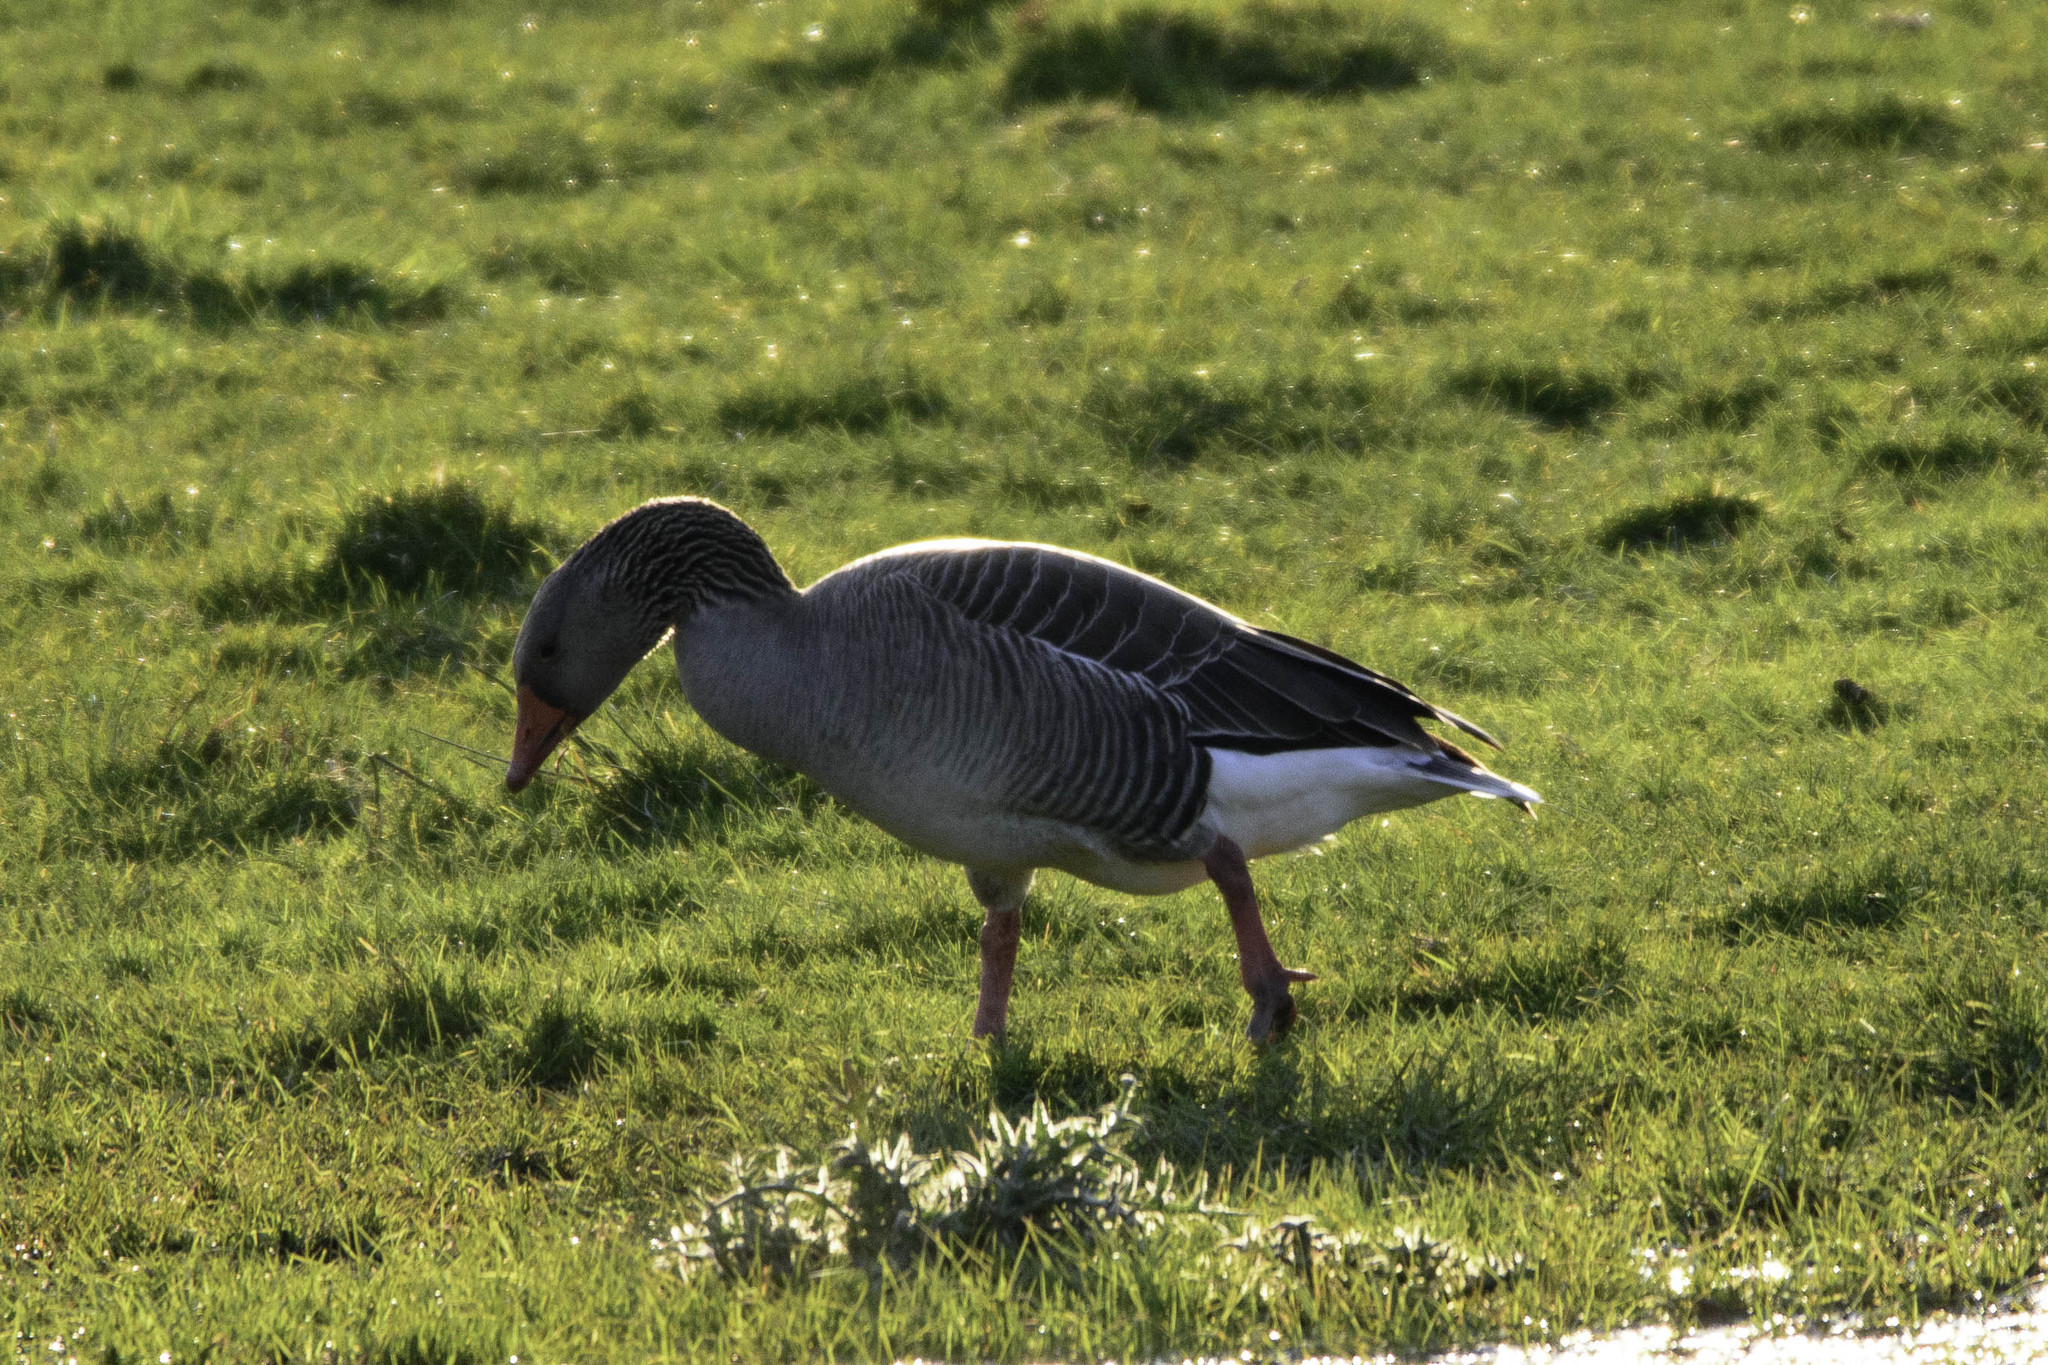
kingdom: Animalia
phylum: Chordata
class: Aves
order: Anseriformes
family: Anatidae
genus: Anser
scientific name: Anser anser
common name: Greylag goose
